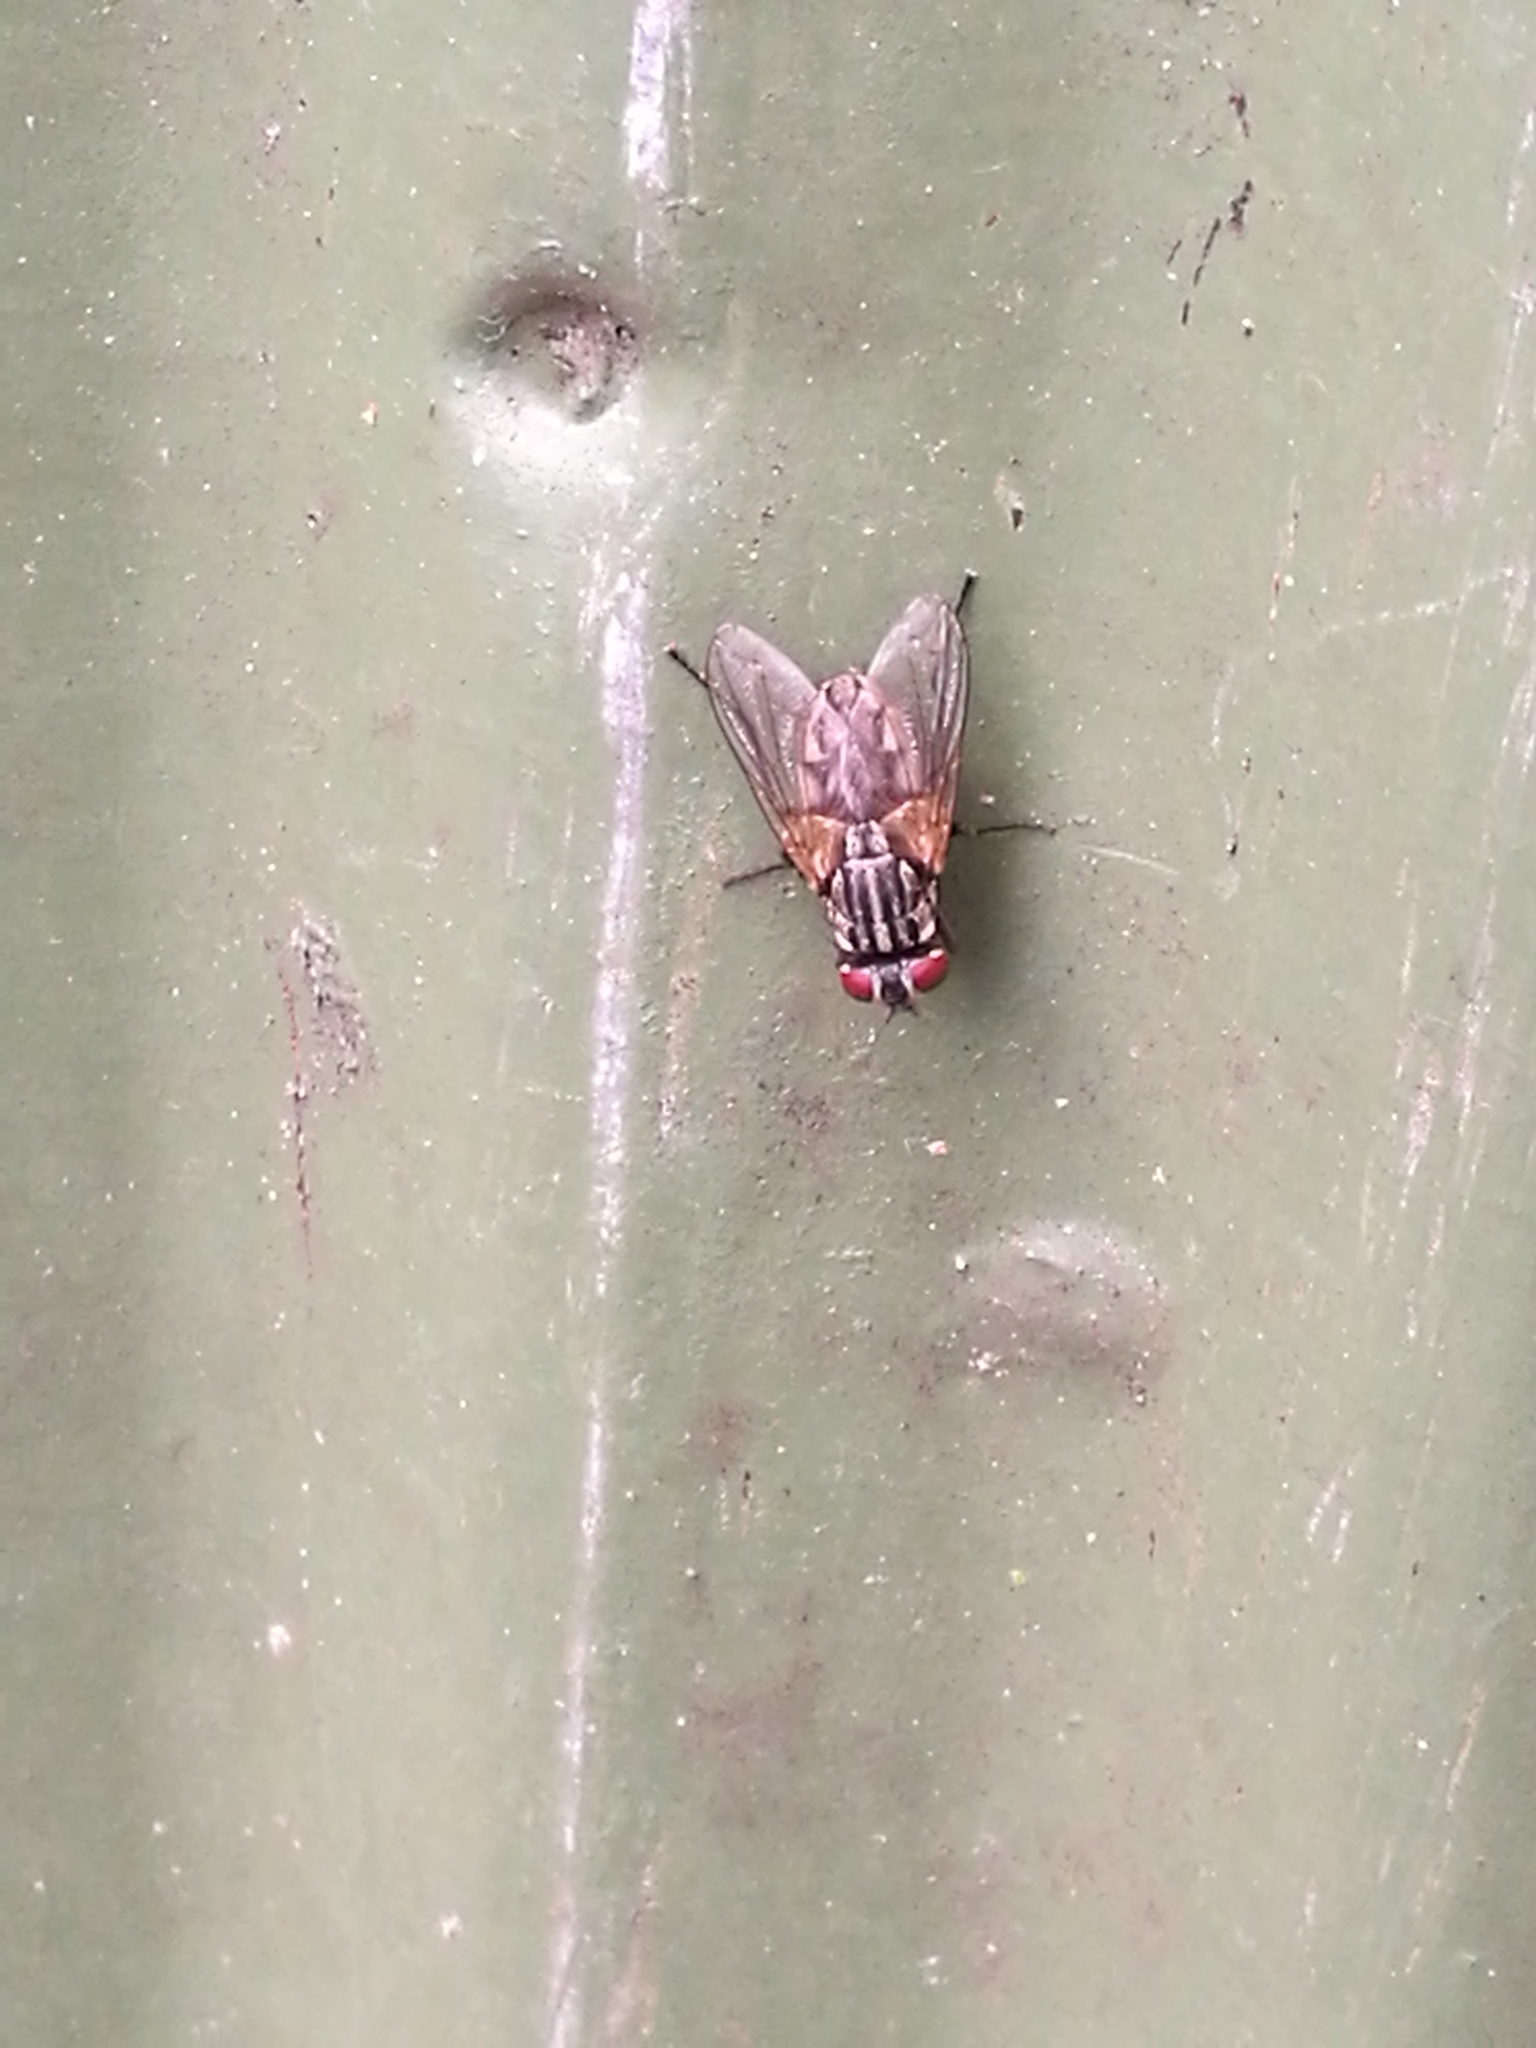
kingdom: Animalia
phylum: Arthropoda
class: Insecta
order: Diptera
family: Muscidae
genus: Musca
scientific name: Musca domestica
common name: House fly
